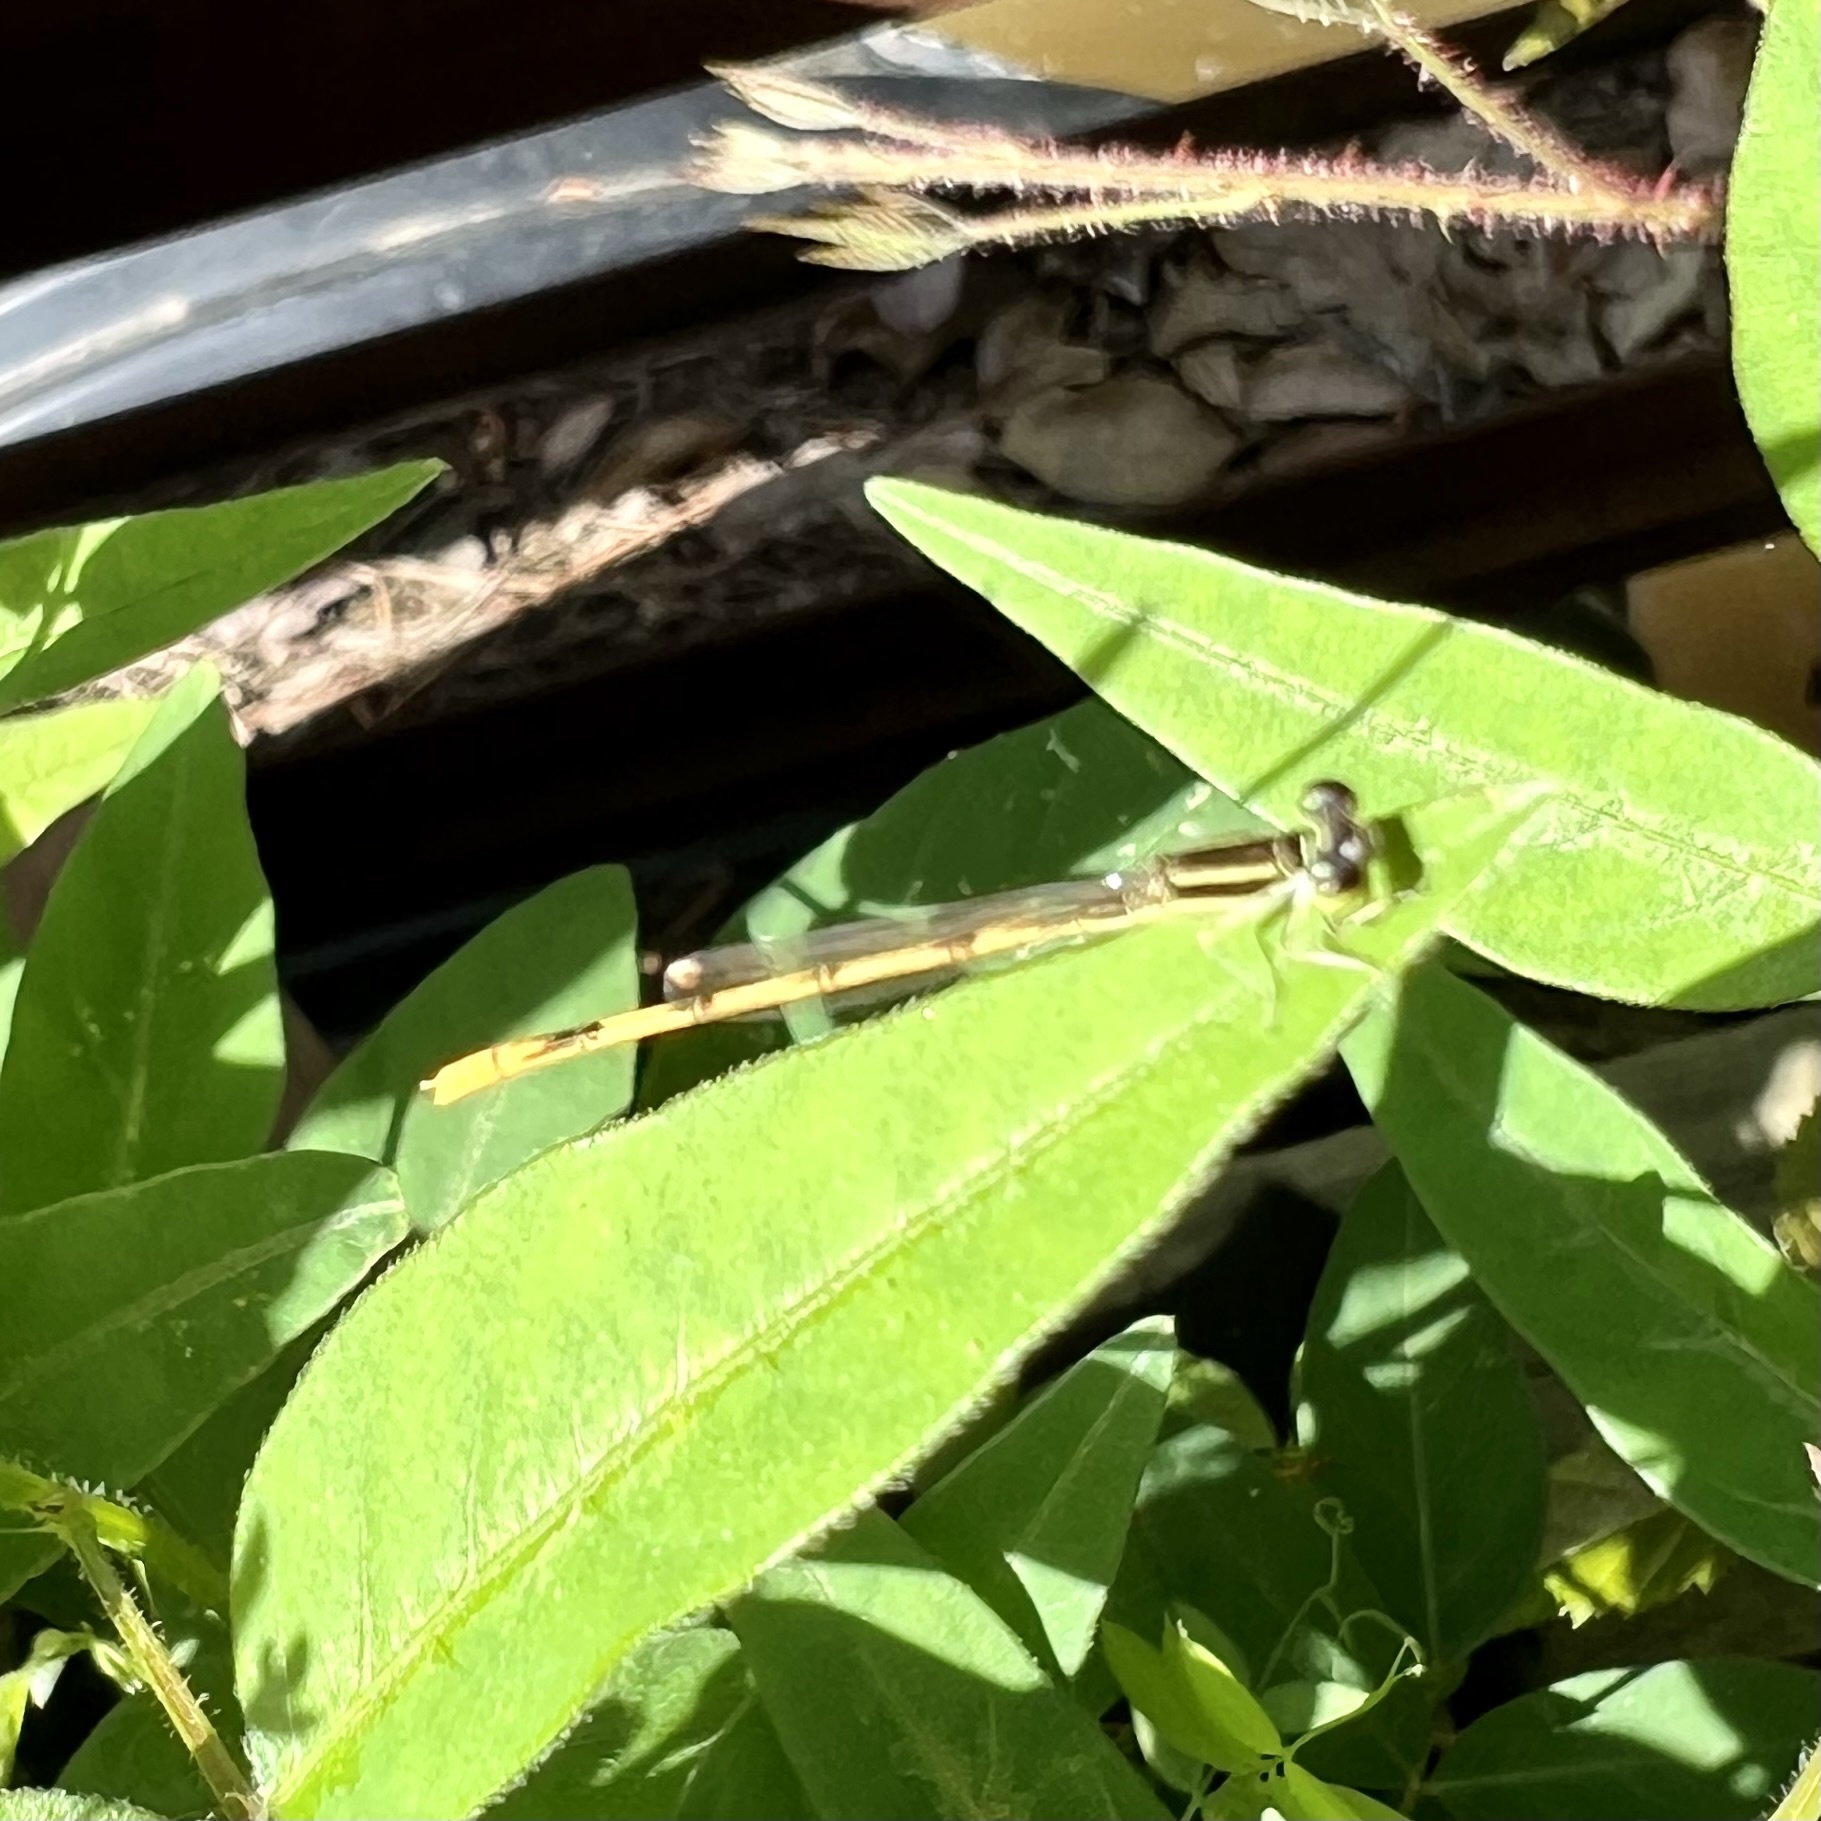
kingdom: Animalia
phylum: Arthropoda
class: Insecta
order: Odonata
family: Coenagrionidae
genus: Ischnura
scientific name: Ischnura hastata
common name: Citrine forktail
